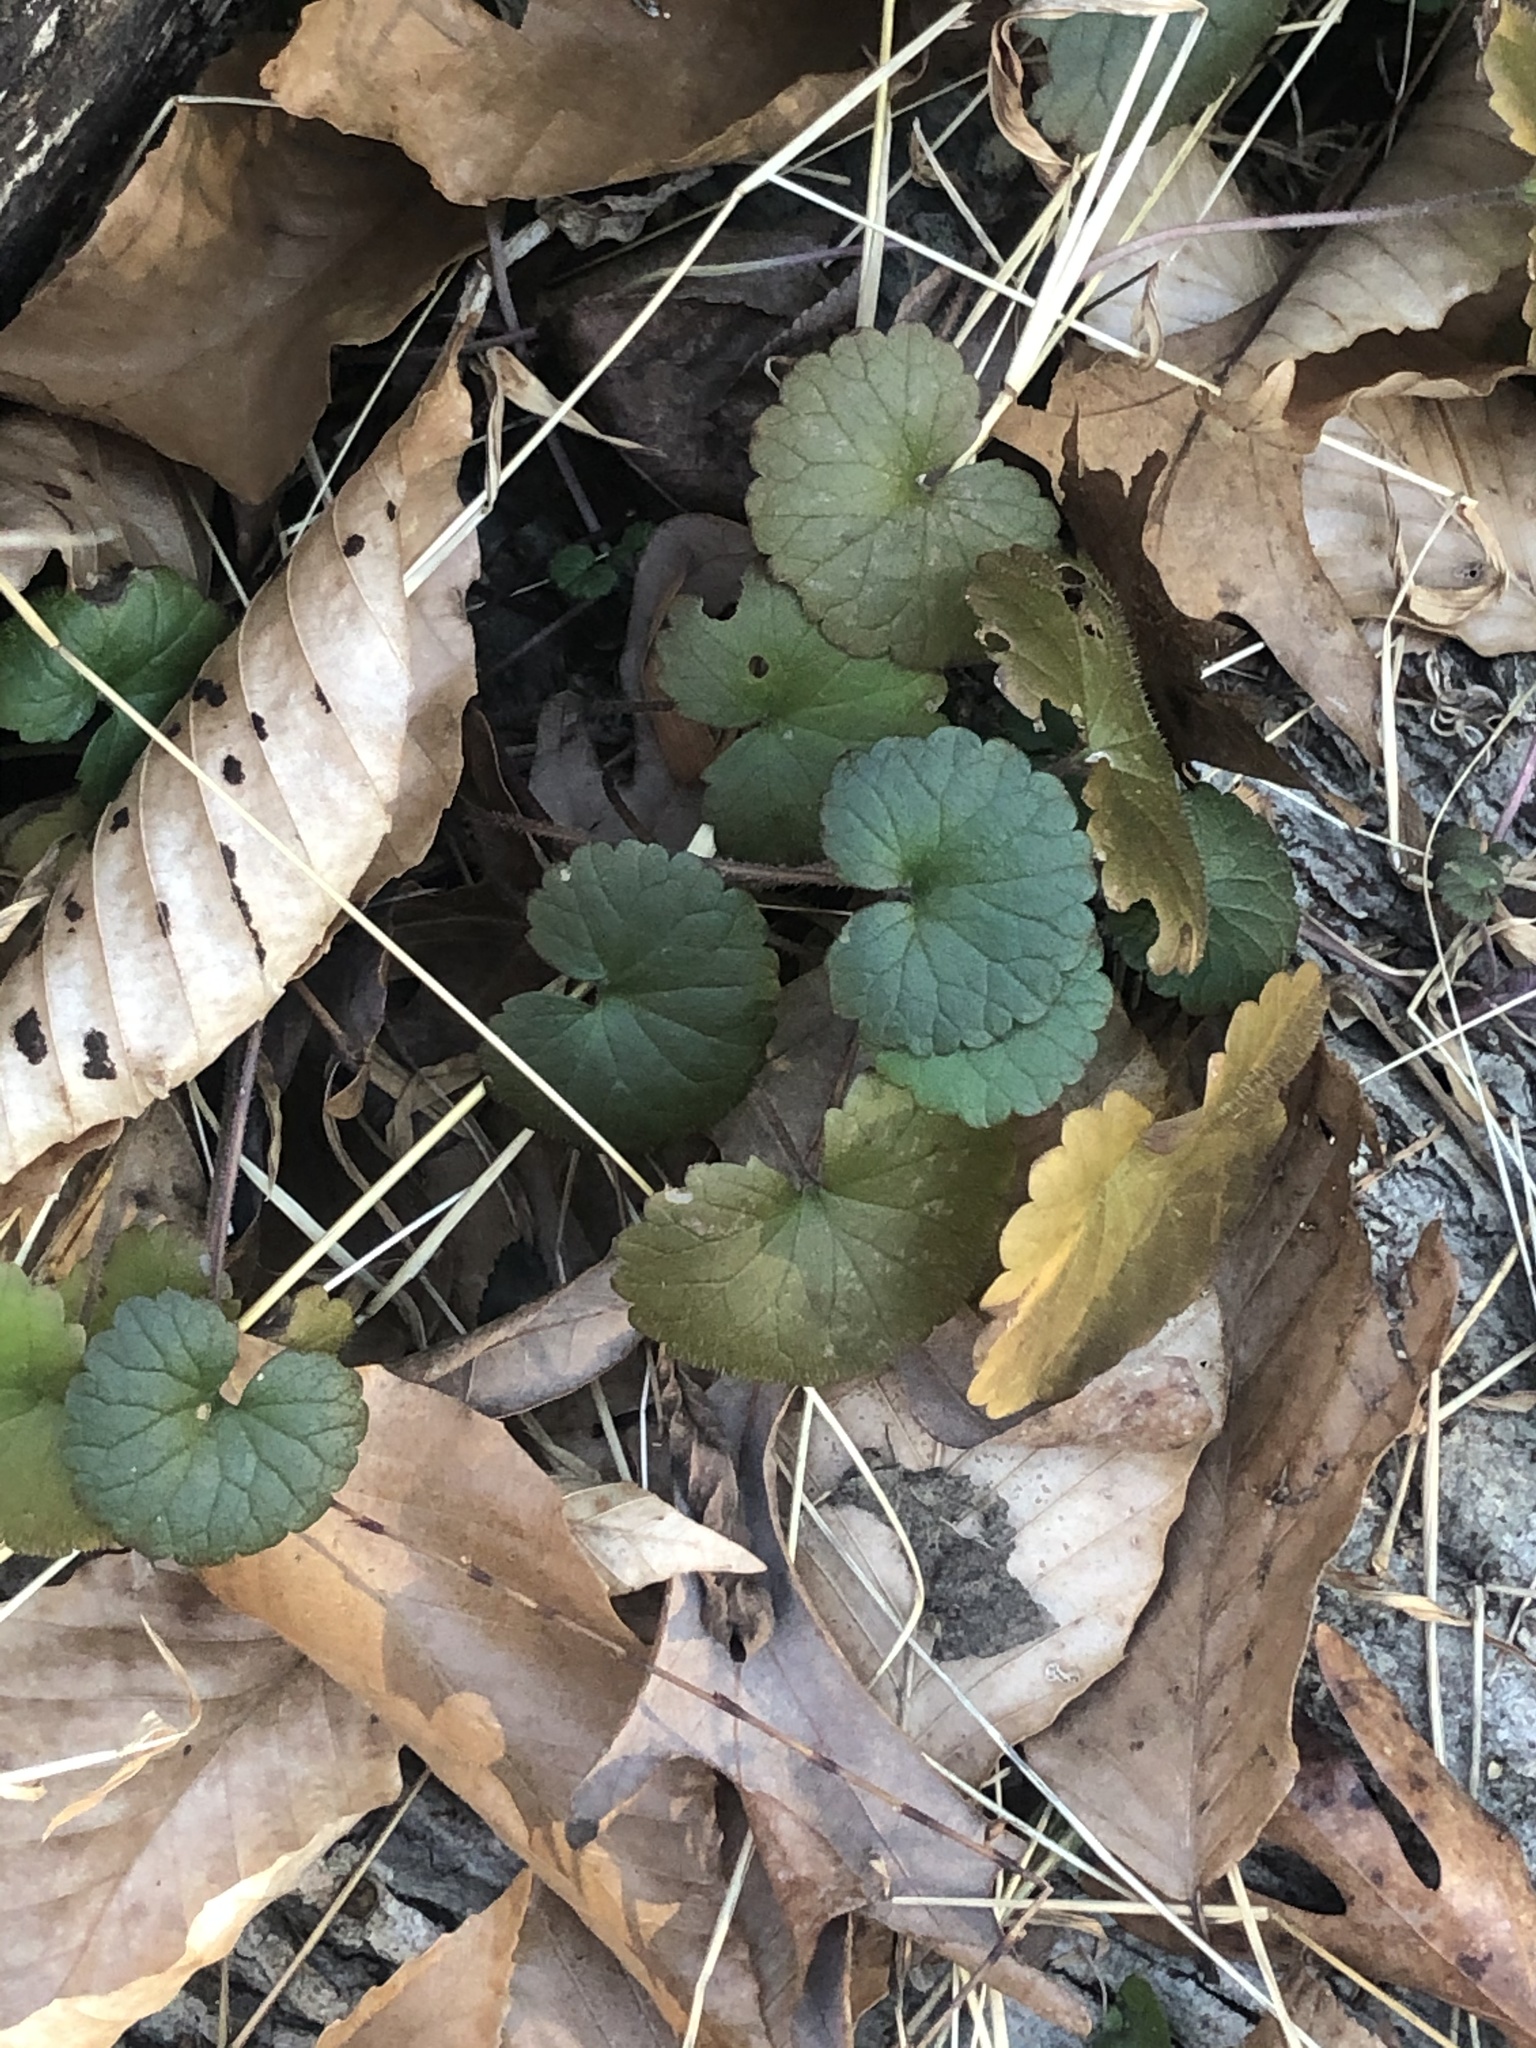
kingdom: Plantae
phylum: Tracheophyta
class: Magnoliopsida
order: Lamiales
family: Lamiaceae
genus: Glechoma
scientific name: Glechoma hederacea
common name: Ground ivy
